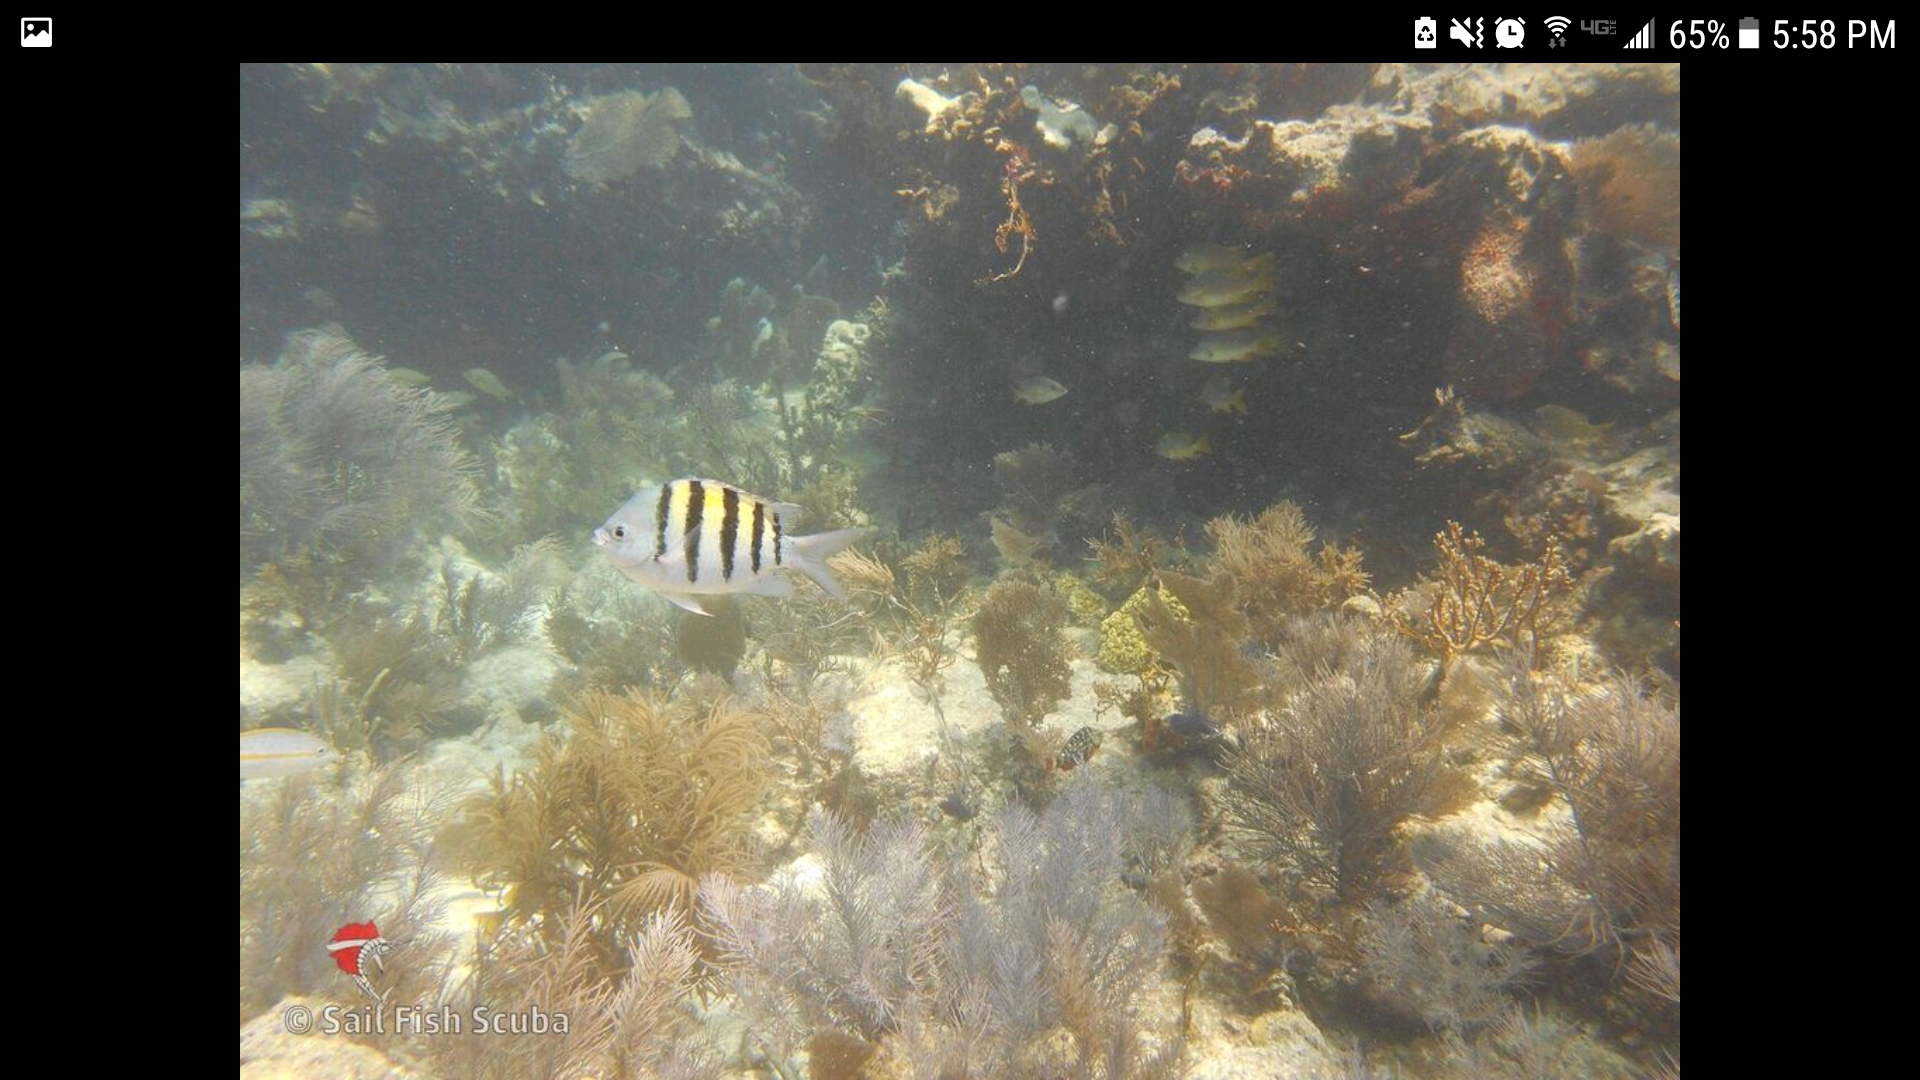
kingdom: Animalia
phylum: Chordata
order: Perciformes
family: Pomacentridae
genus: Abudefduf
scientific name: Abudefduf saxatilis
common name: Sergeant major
